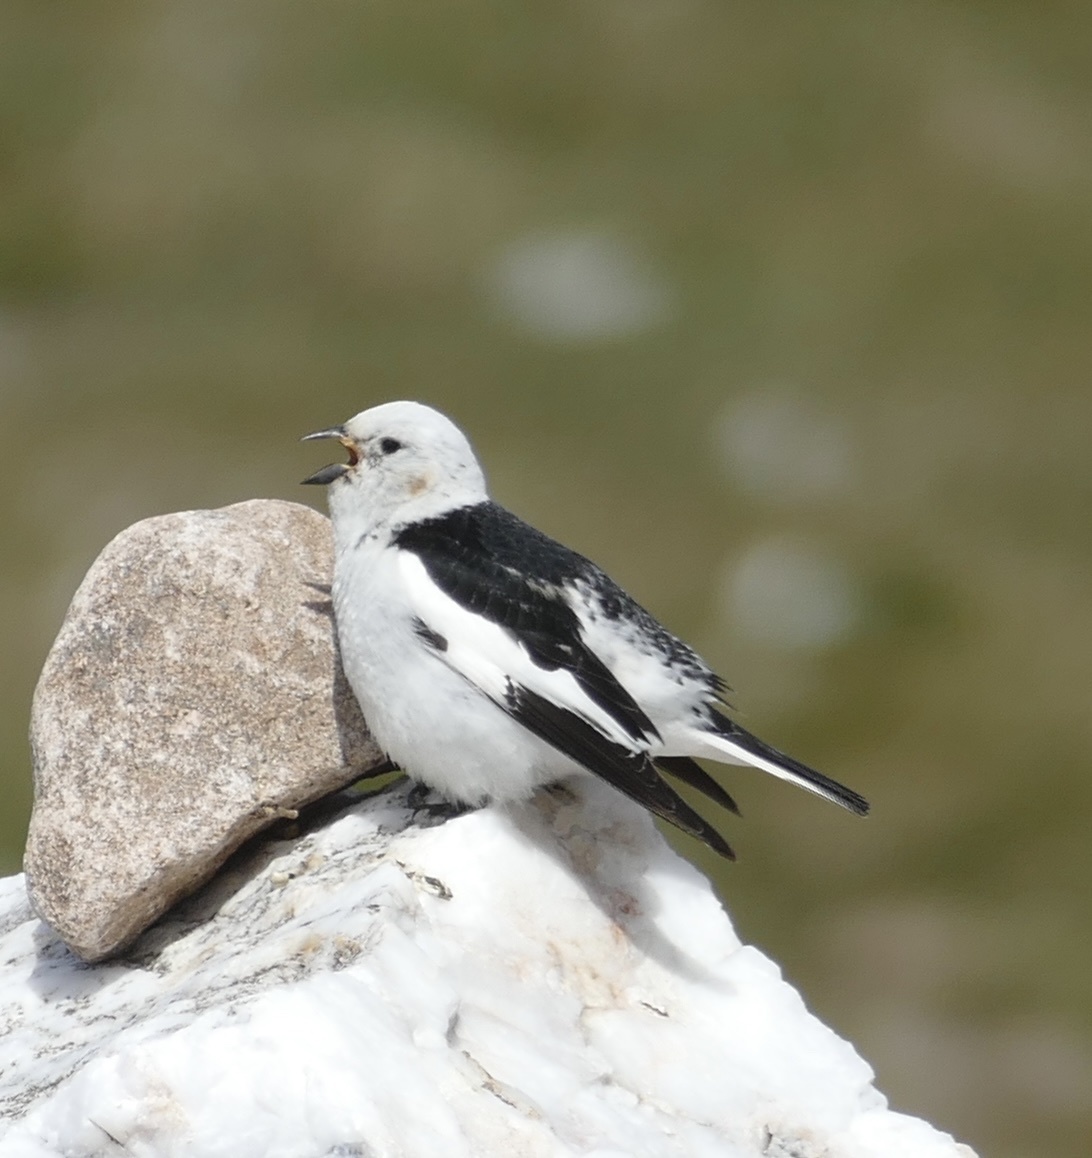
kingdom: Animalia
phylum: Chordata
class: Aves
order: Passeriformes
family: Calcariidae
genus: Plectrophenax
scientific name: Plectrophenax nivalis
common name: Snow bunting
